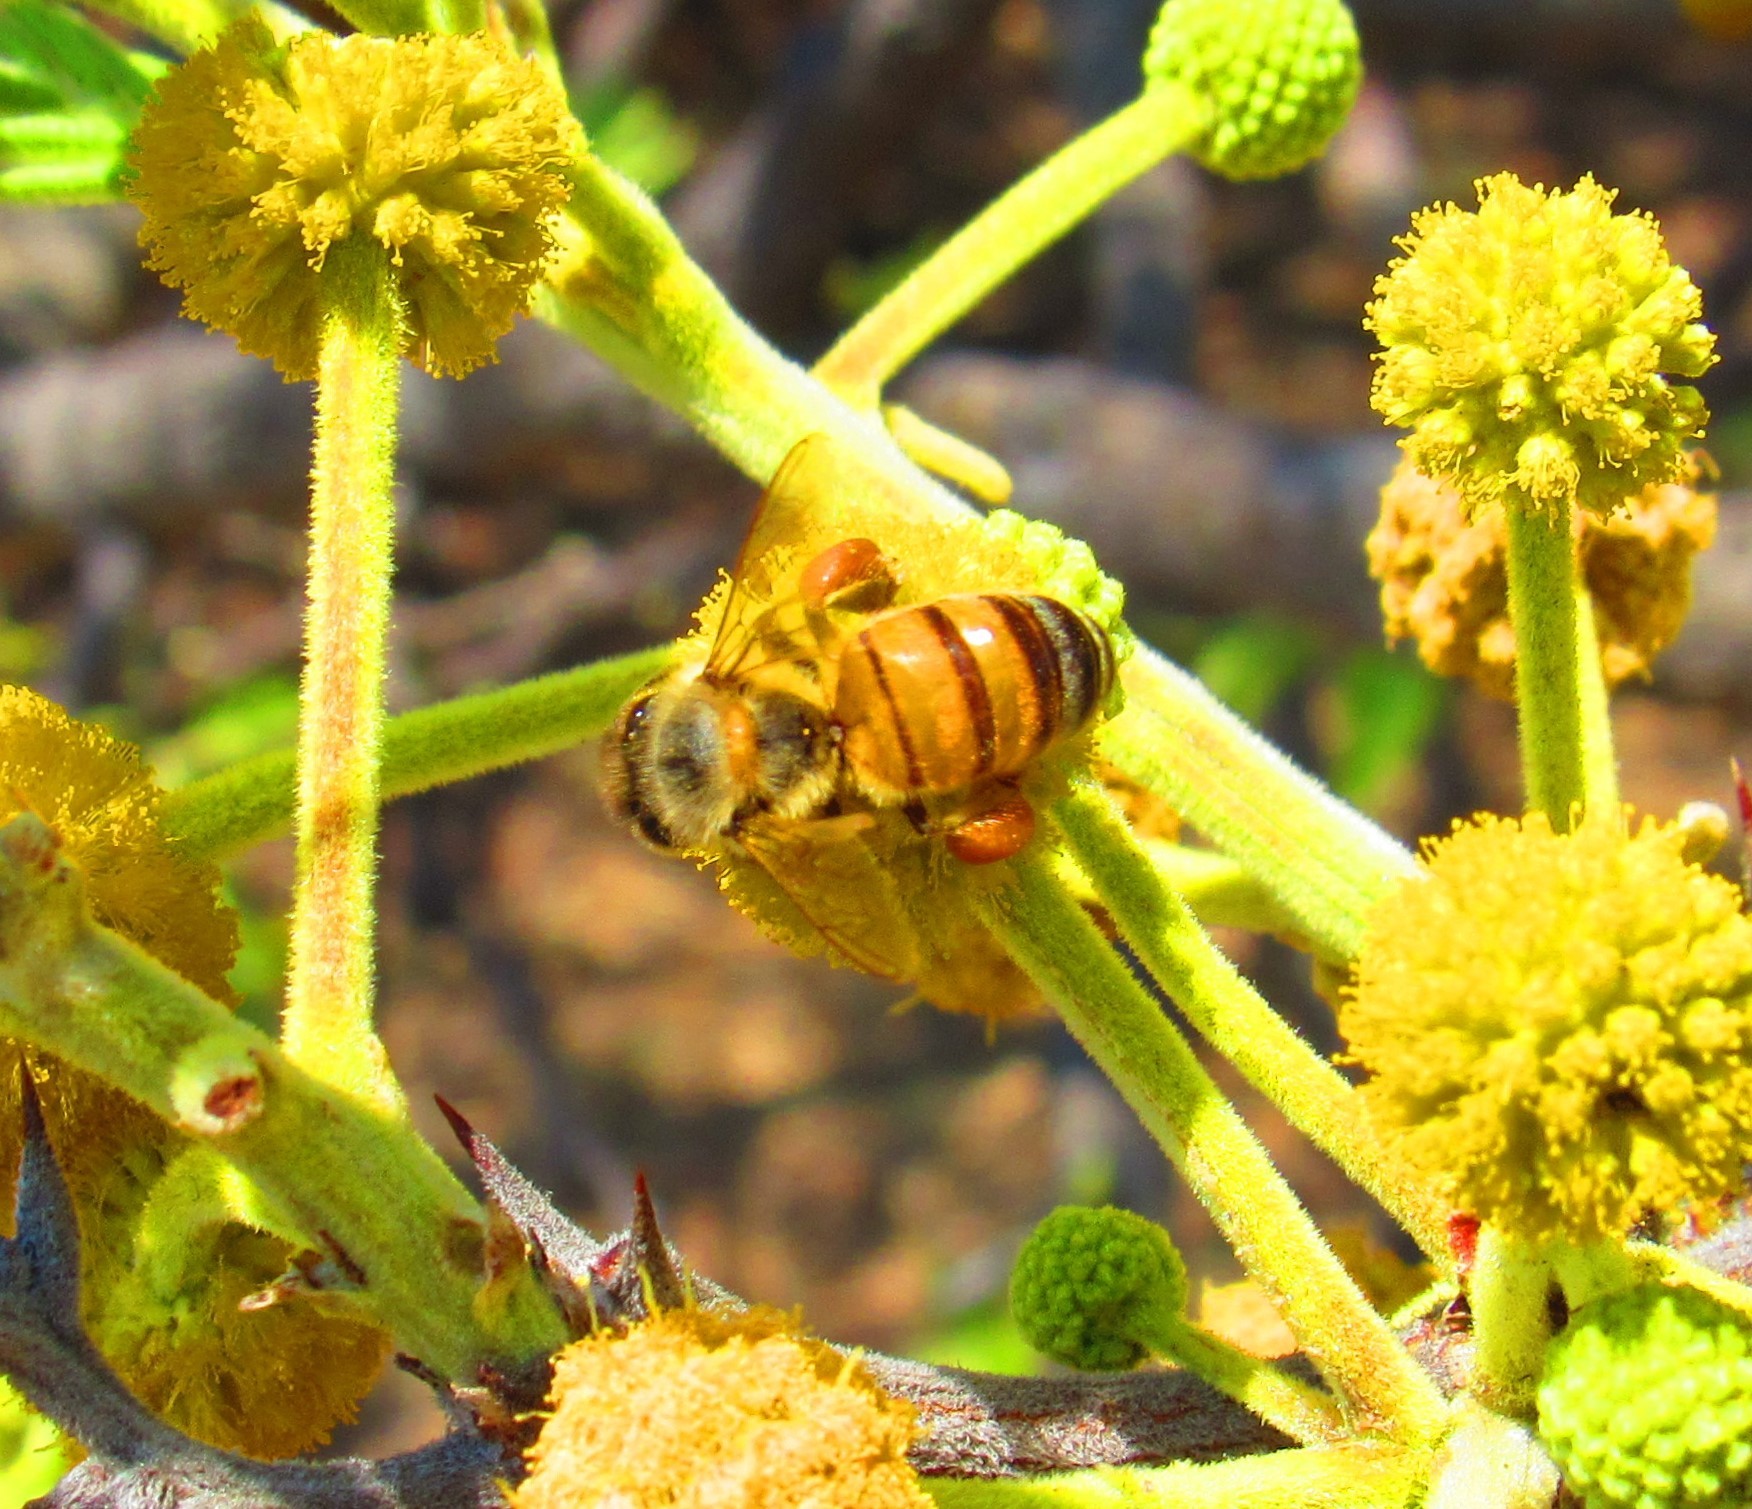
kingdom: Animalia
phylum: Arthropoda
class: Insecta
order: Hymenoptera
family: Apidae
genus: Apis
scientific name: Apis mellifera
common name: Honey bee
